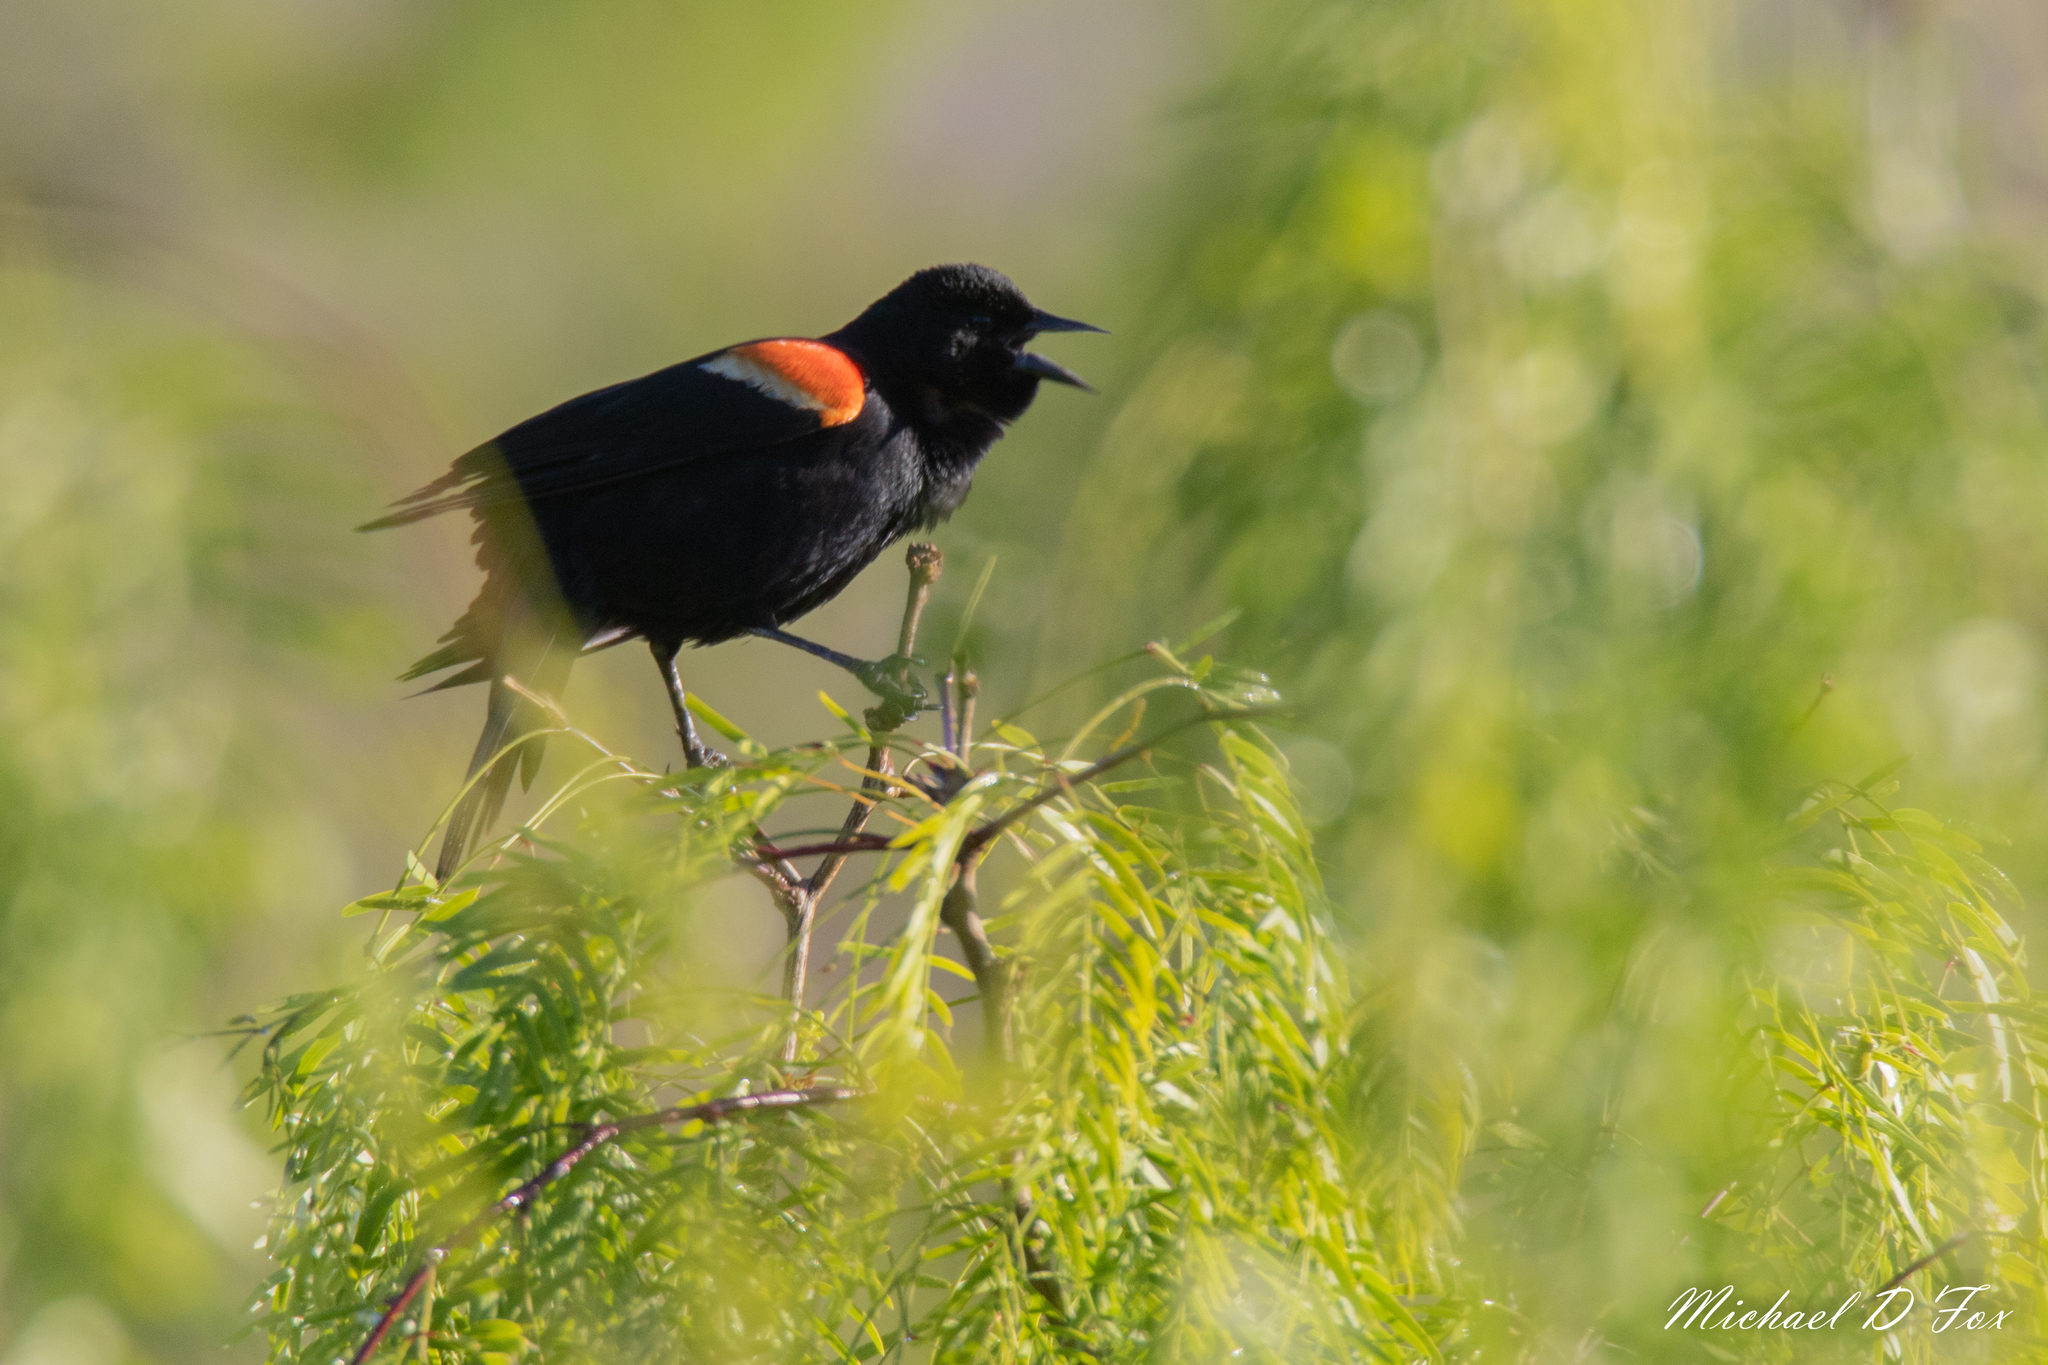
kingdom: Animalia
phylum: Chordata
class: Aves
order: Passeriformes
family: Icteridae
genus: Agelaius
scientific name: Agelaius phoeniceus
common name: Red-winged blackbird
